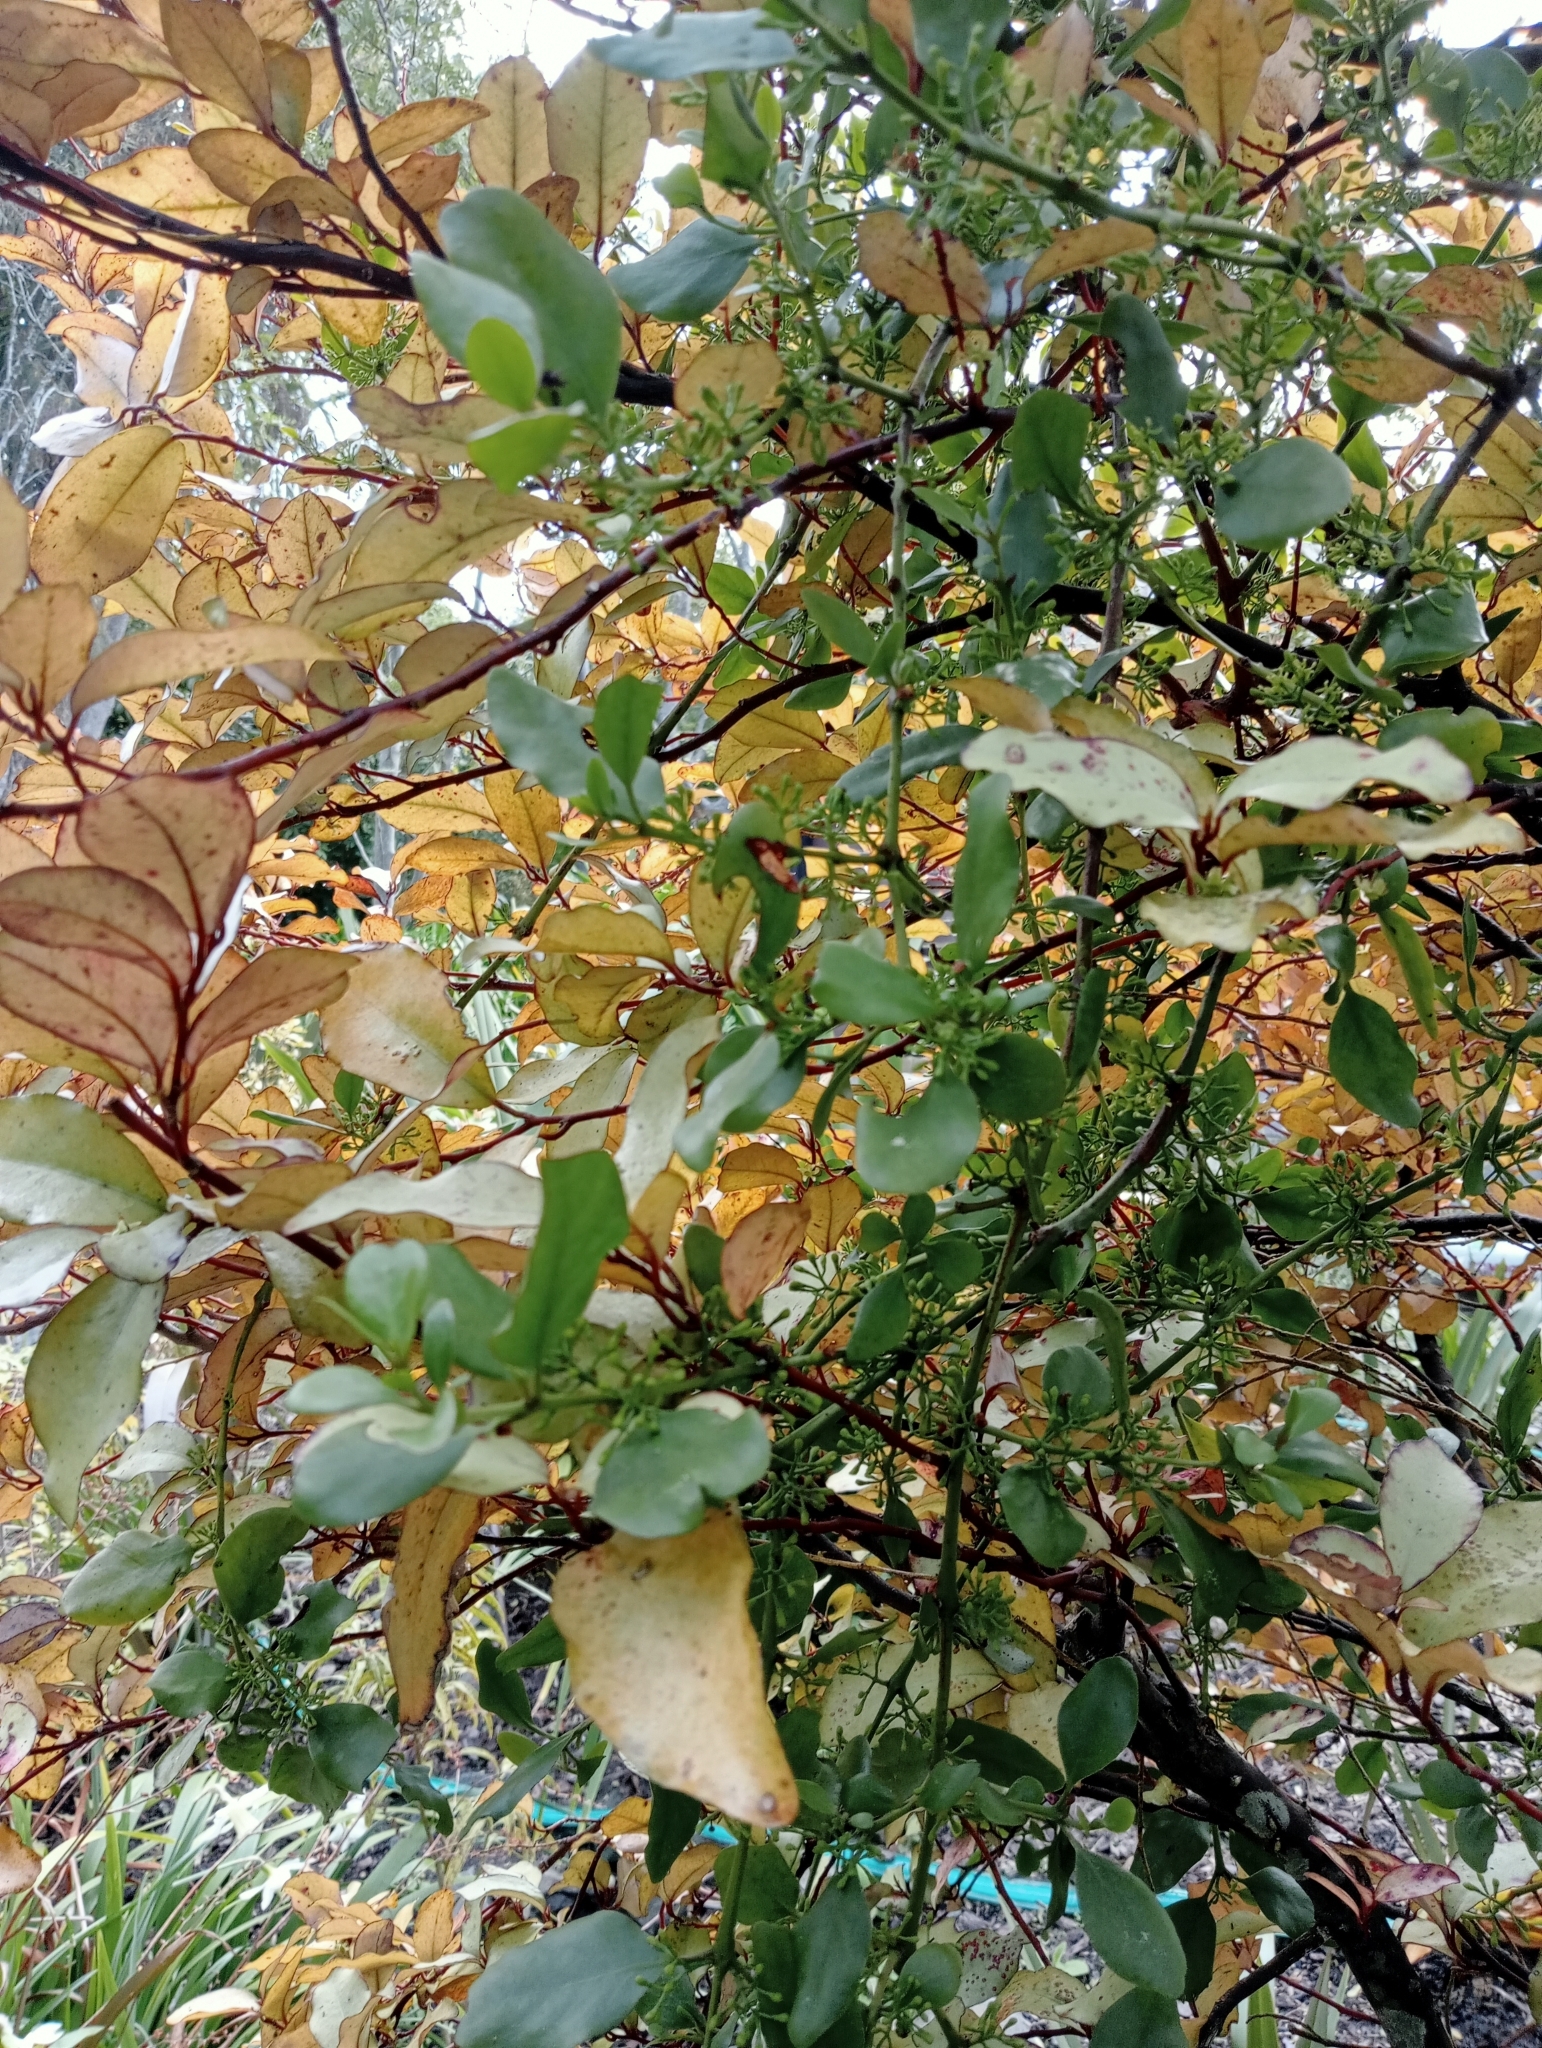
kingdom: Plantae
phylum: Tracheophyta
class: Magnoliopsida
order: Santalales
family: Loranthaceae
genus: Ileostylus
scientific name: Ileostylus micranthus
